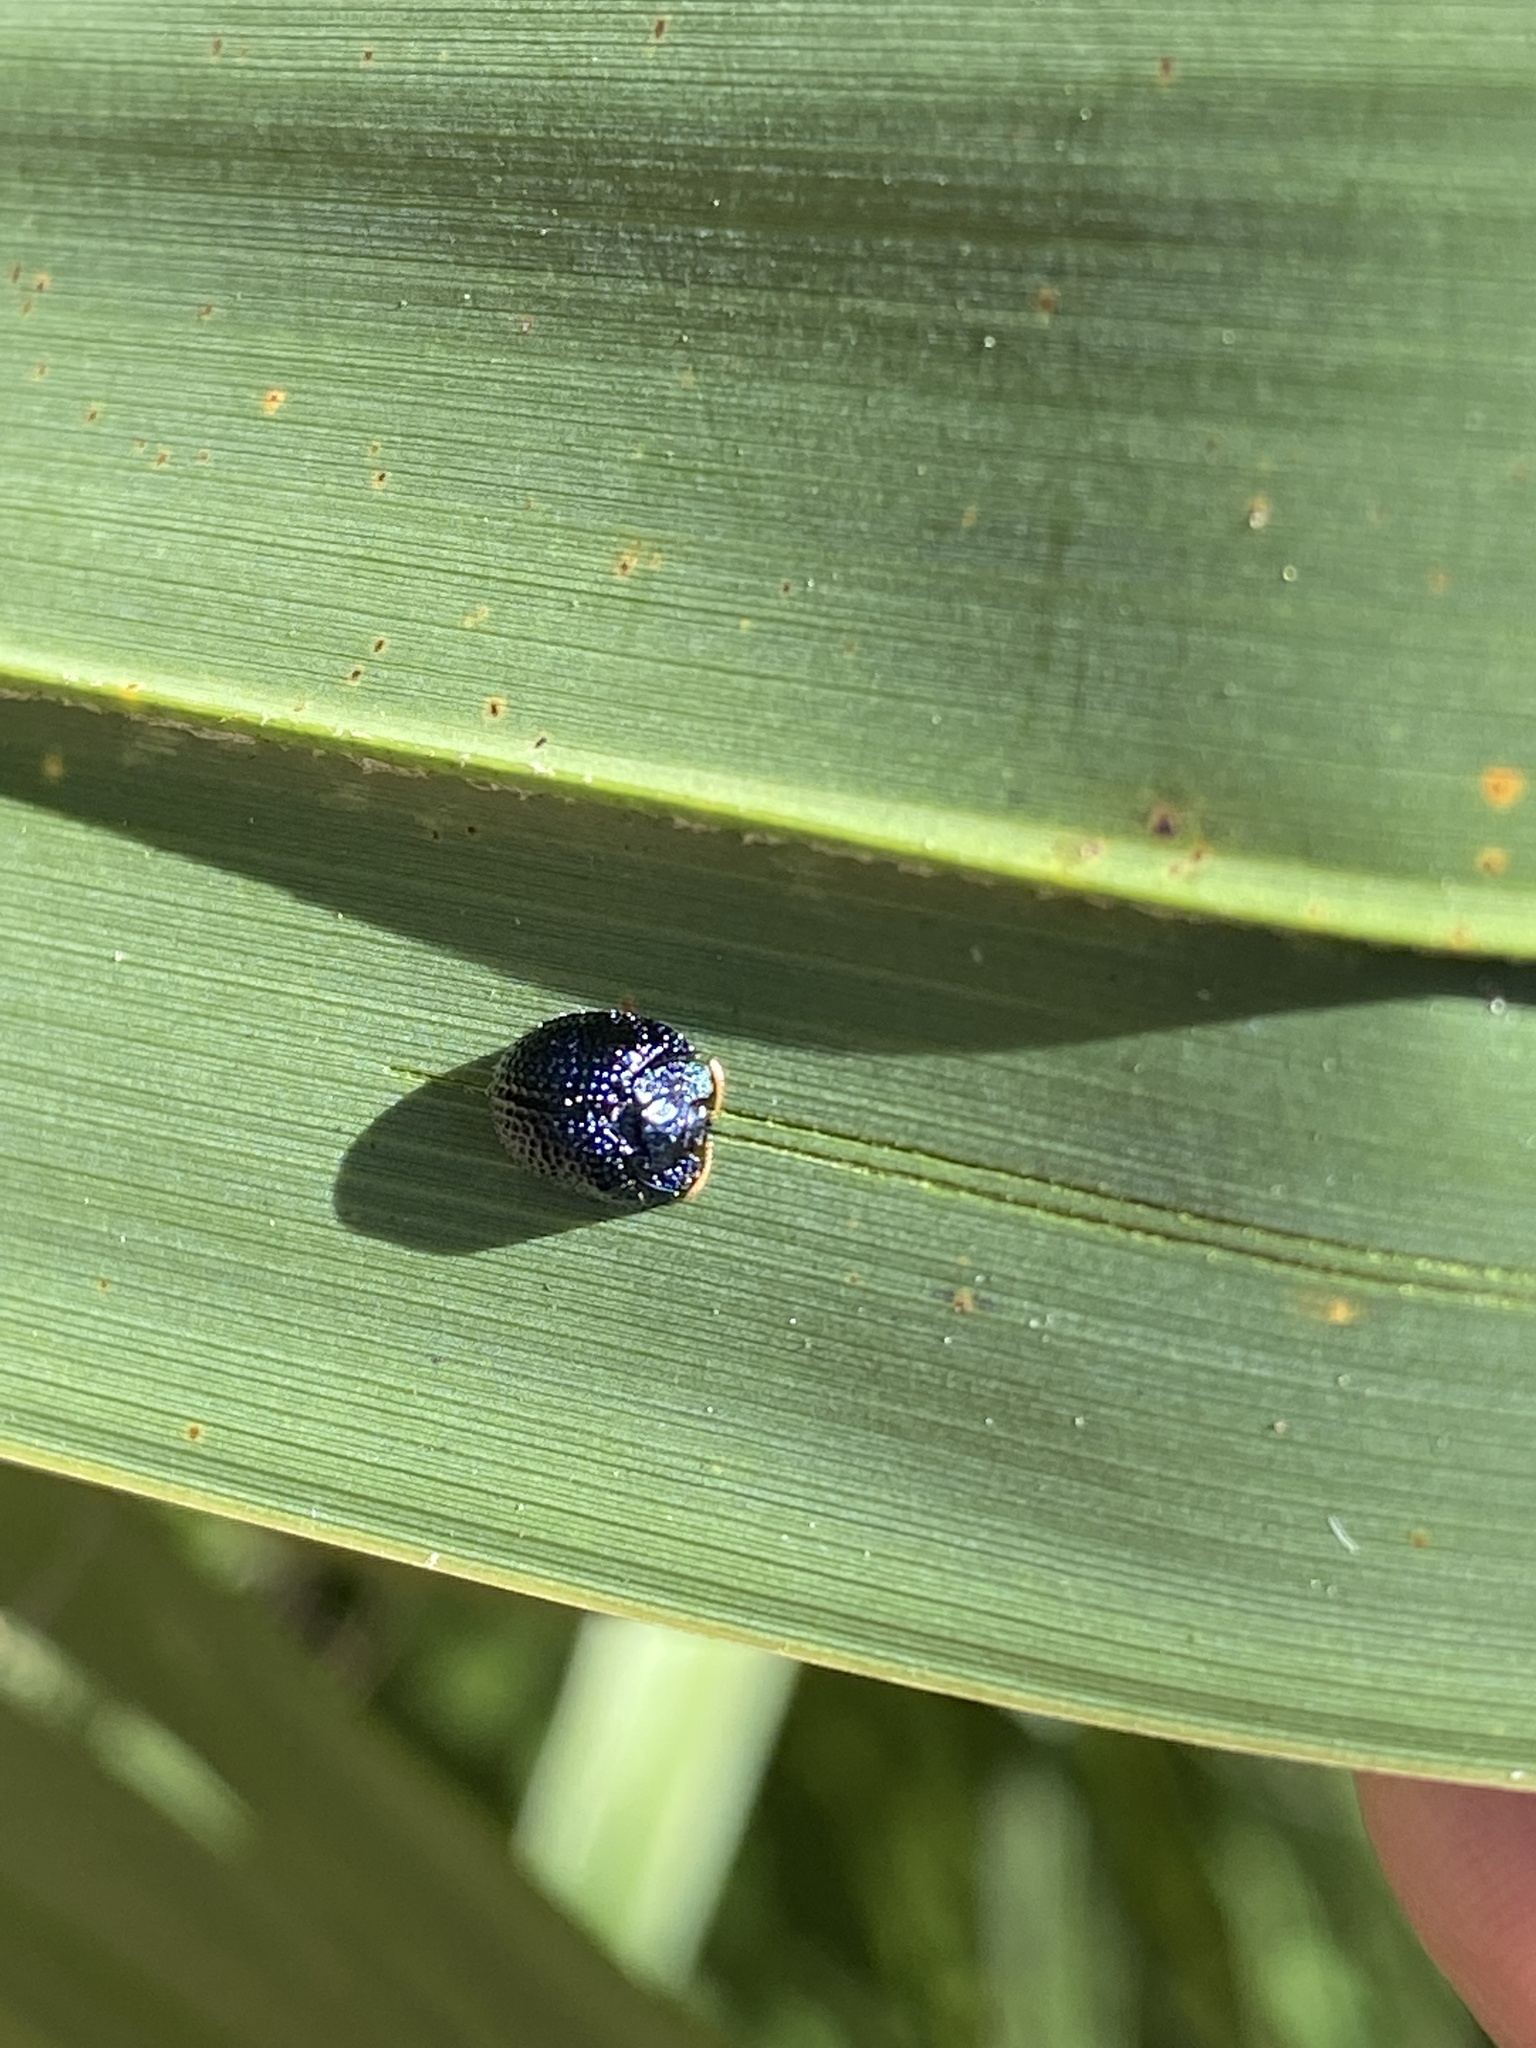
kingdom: Animalia
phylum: Arthropoda
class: Insecta
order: Coleoptera
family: Chrysomelidae
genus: Hemisphaerota
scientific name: Hemisphaerota cyanea
